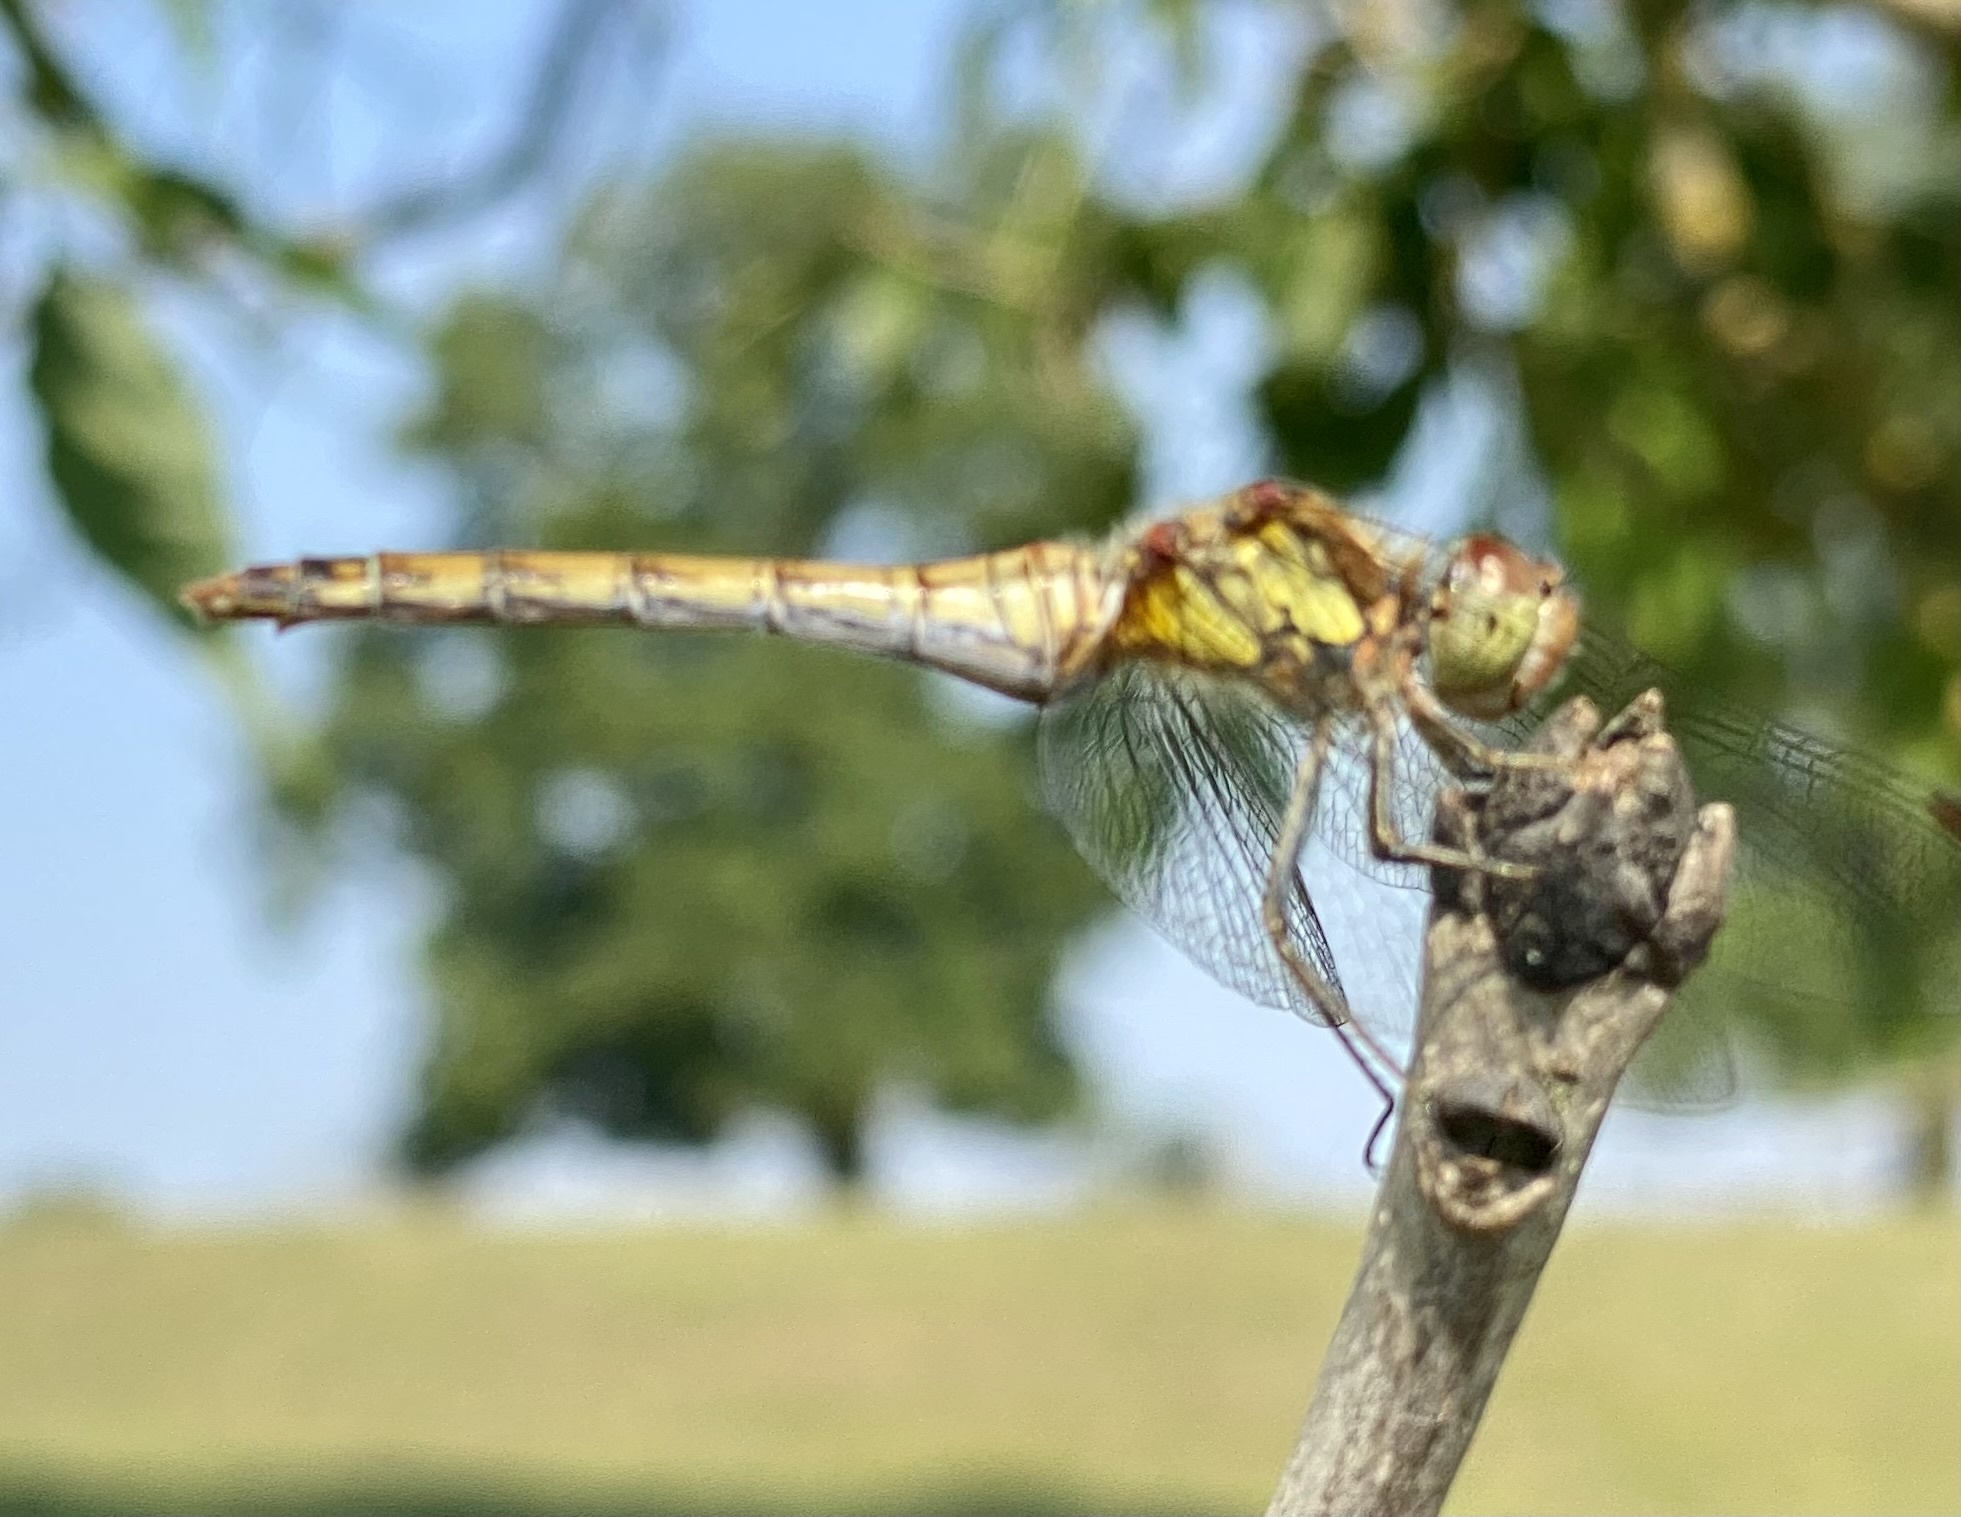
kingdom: Animalia
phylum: Arthropoda
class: Insecta
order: Odonata
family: Libellulidae
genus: Sympetrum
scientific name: Sympetrum striolatum
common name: Common darter
